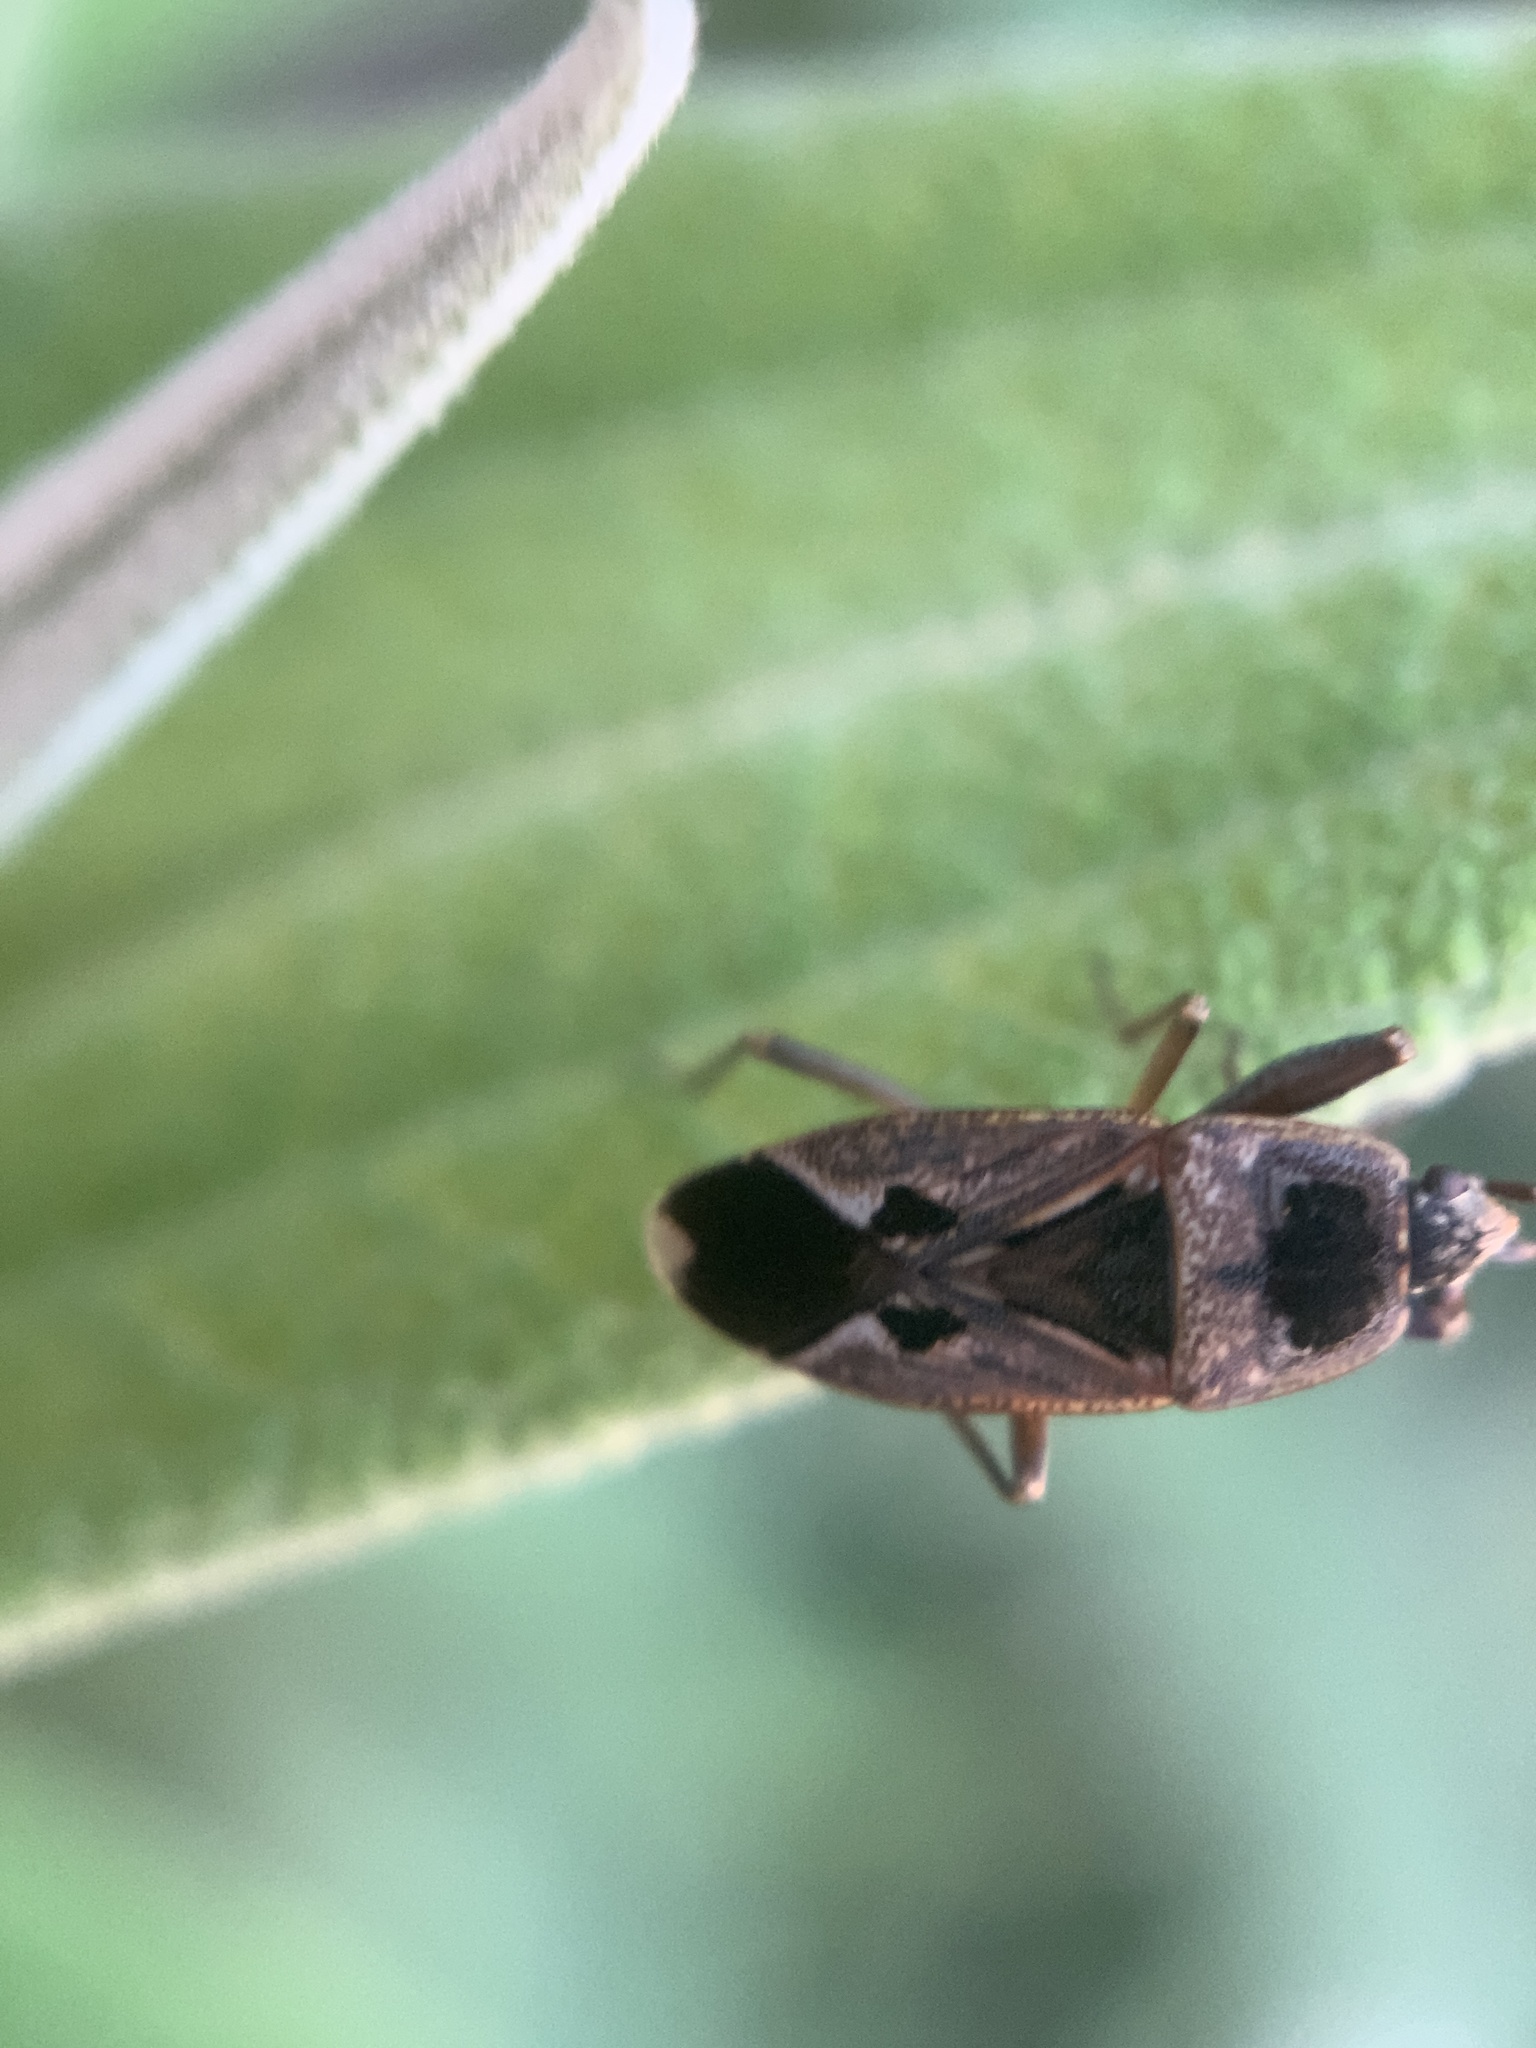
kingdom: Animalia
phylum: Arthropoda
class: Insecta
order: Hemiptera
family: Rhyparochromidae
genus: Naphius
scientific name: Naphius apicalis
